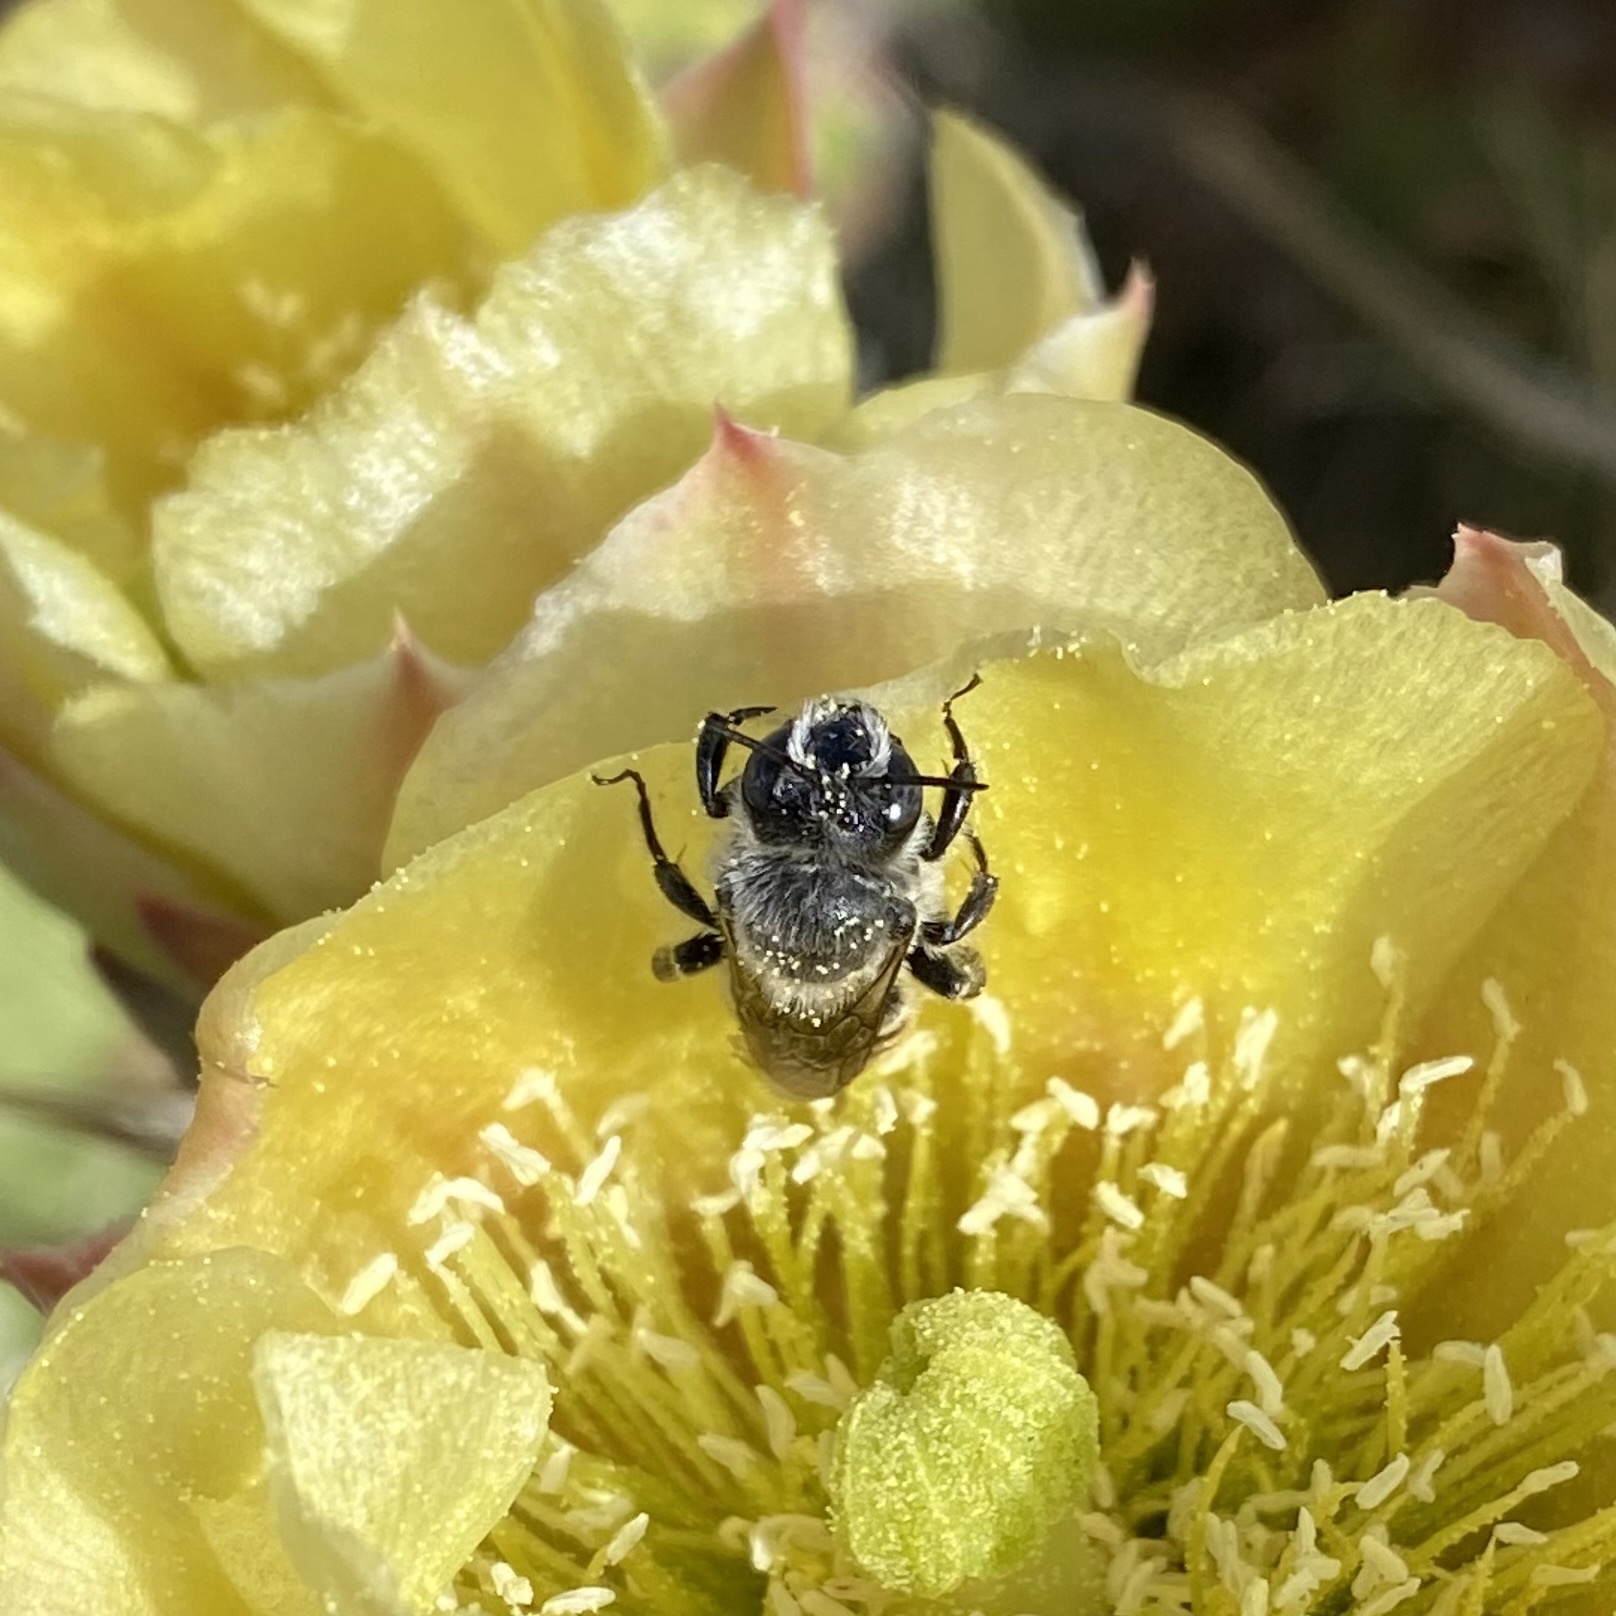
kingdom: Animalia
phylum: Arthropoda
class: Insecta
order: Hymenoptera
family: Megachilidae
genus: Lithurgopsis
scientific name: Lithurgopsis apicalis
